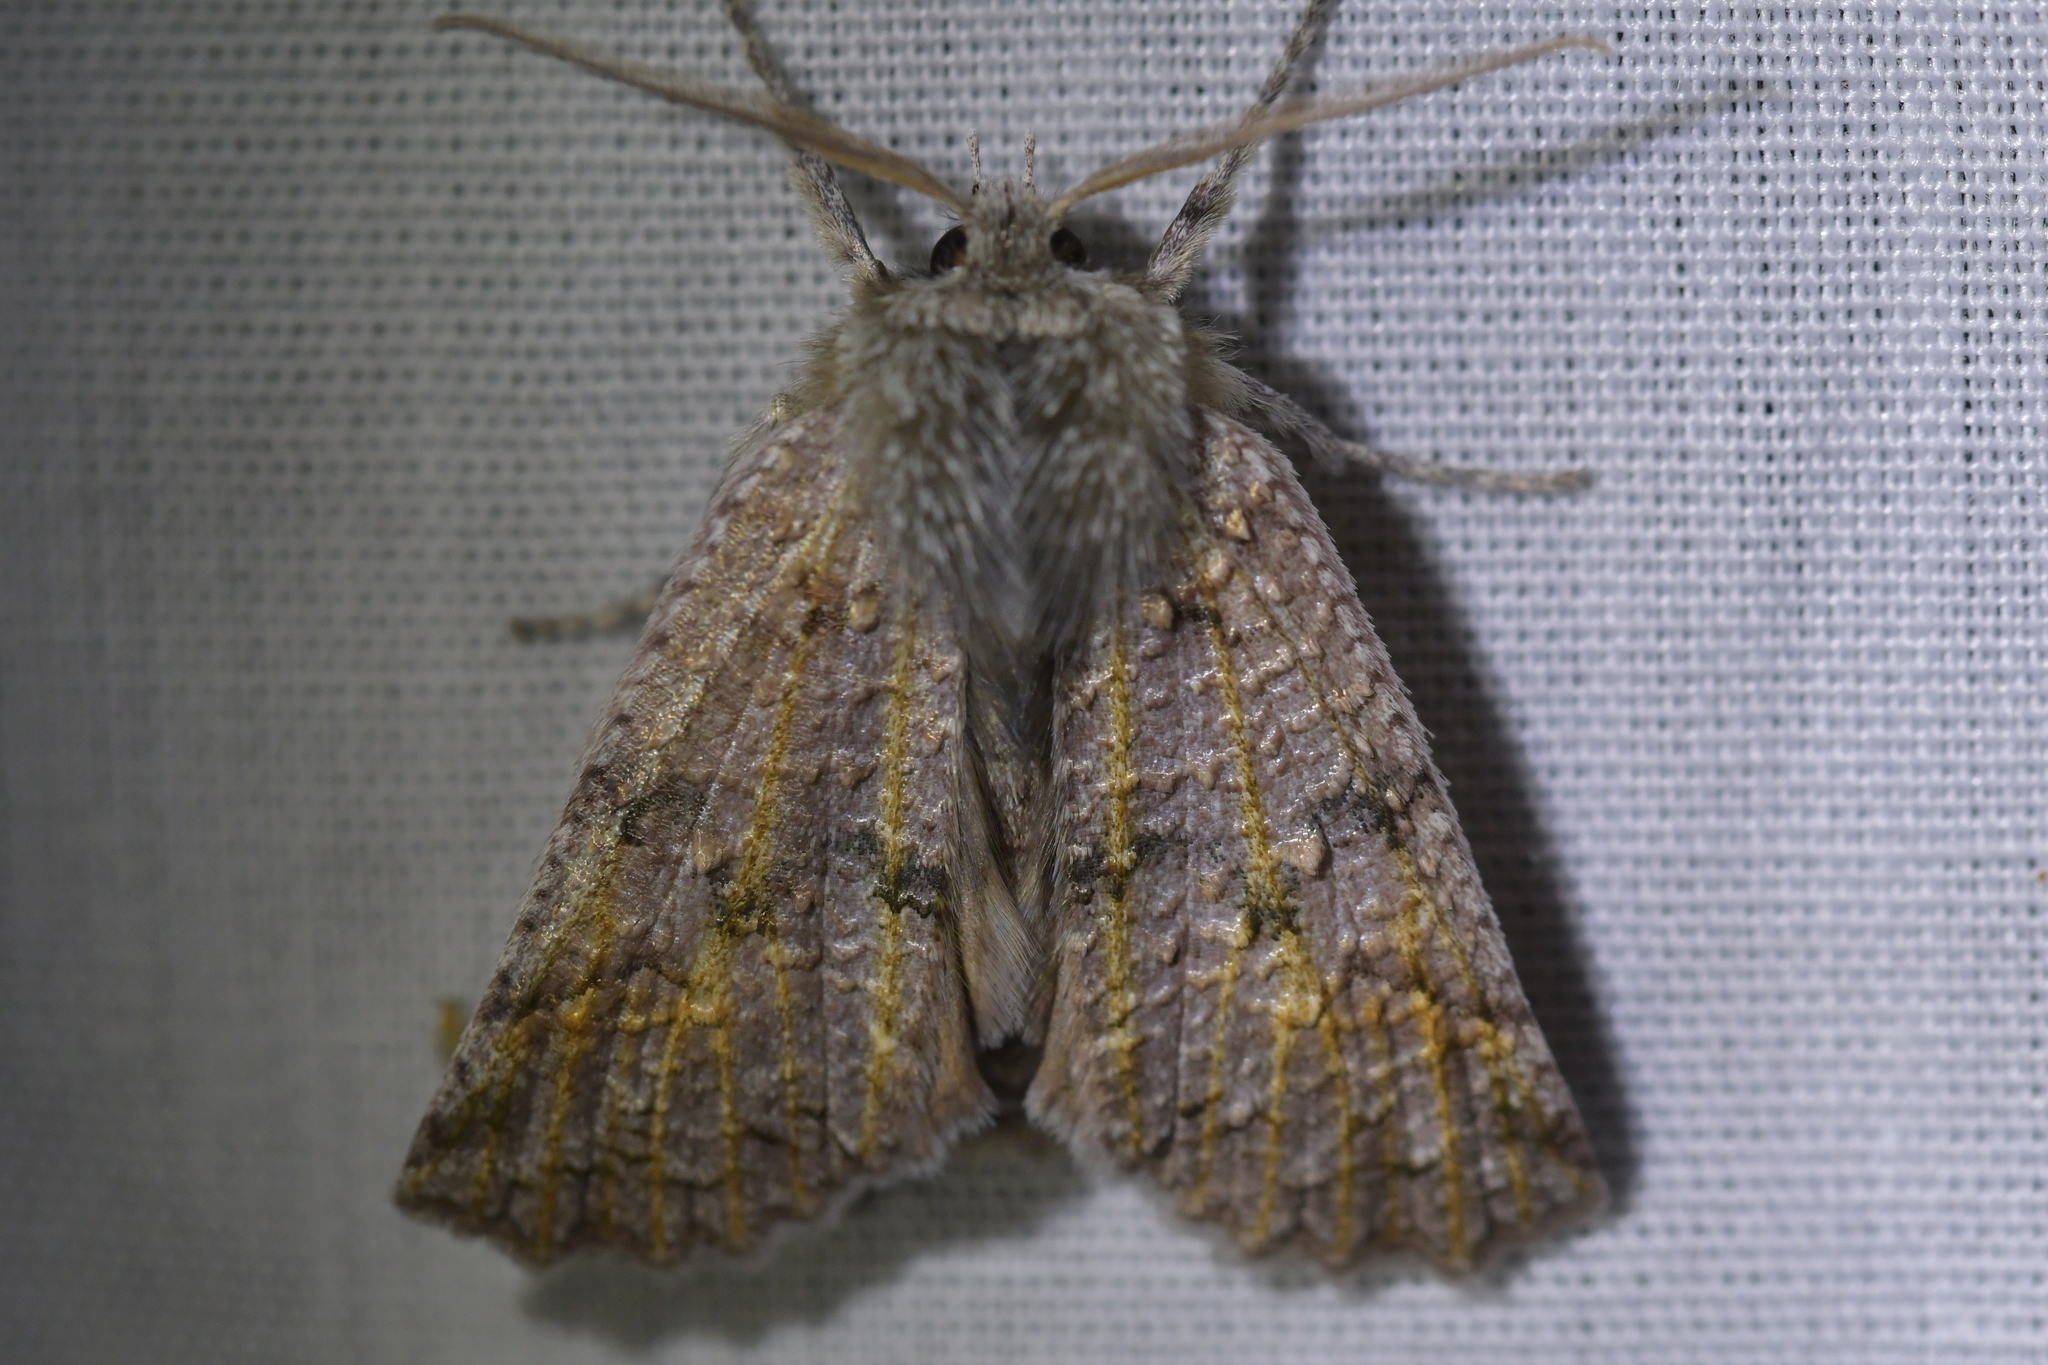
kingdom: Animalia
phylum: Arthropoda
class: Insecta
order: Lepidoptera
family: Geometridae
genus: Declana
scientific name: Declana floccosa
